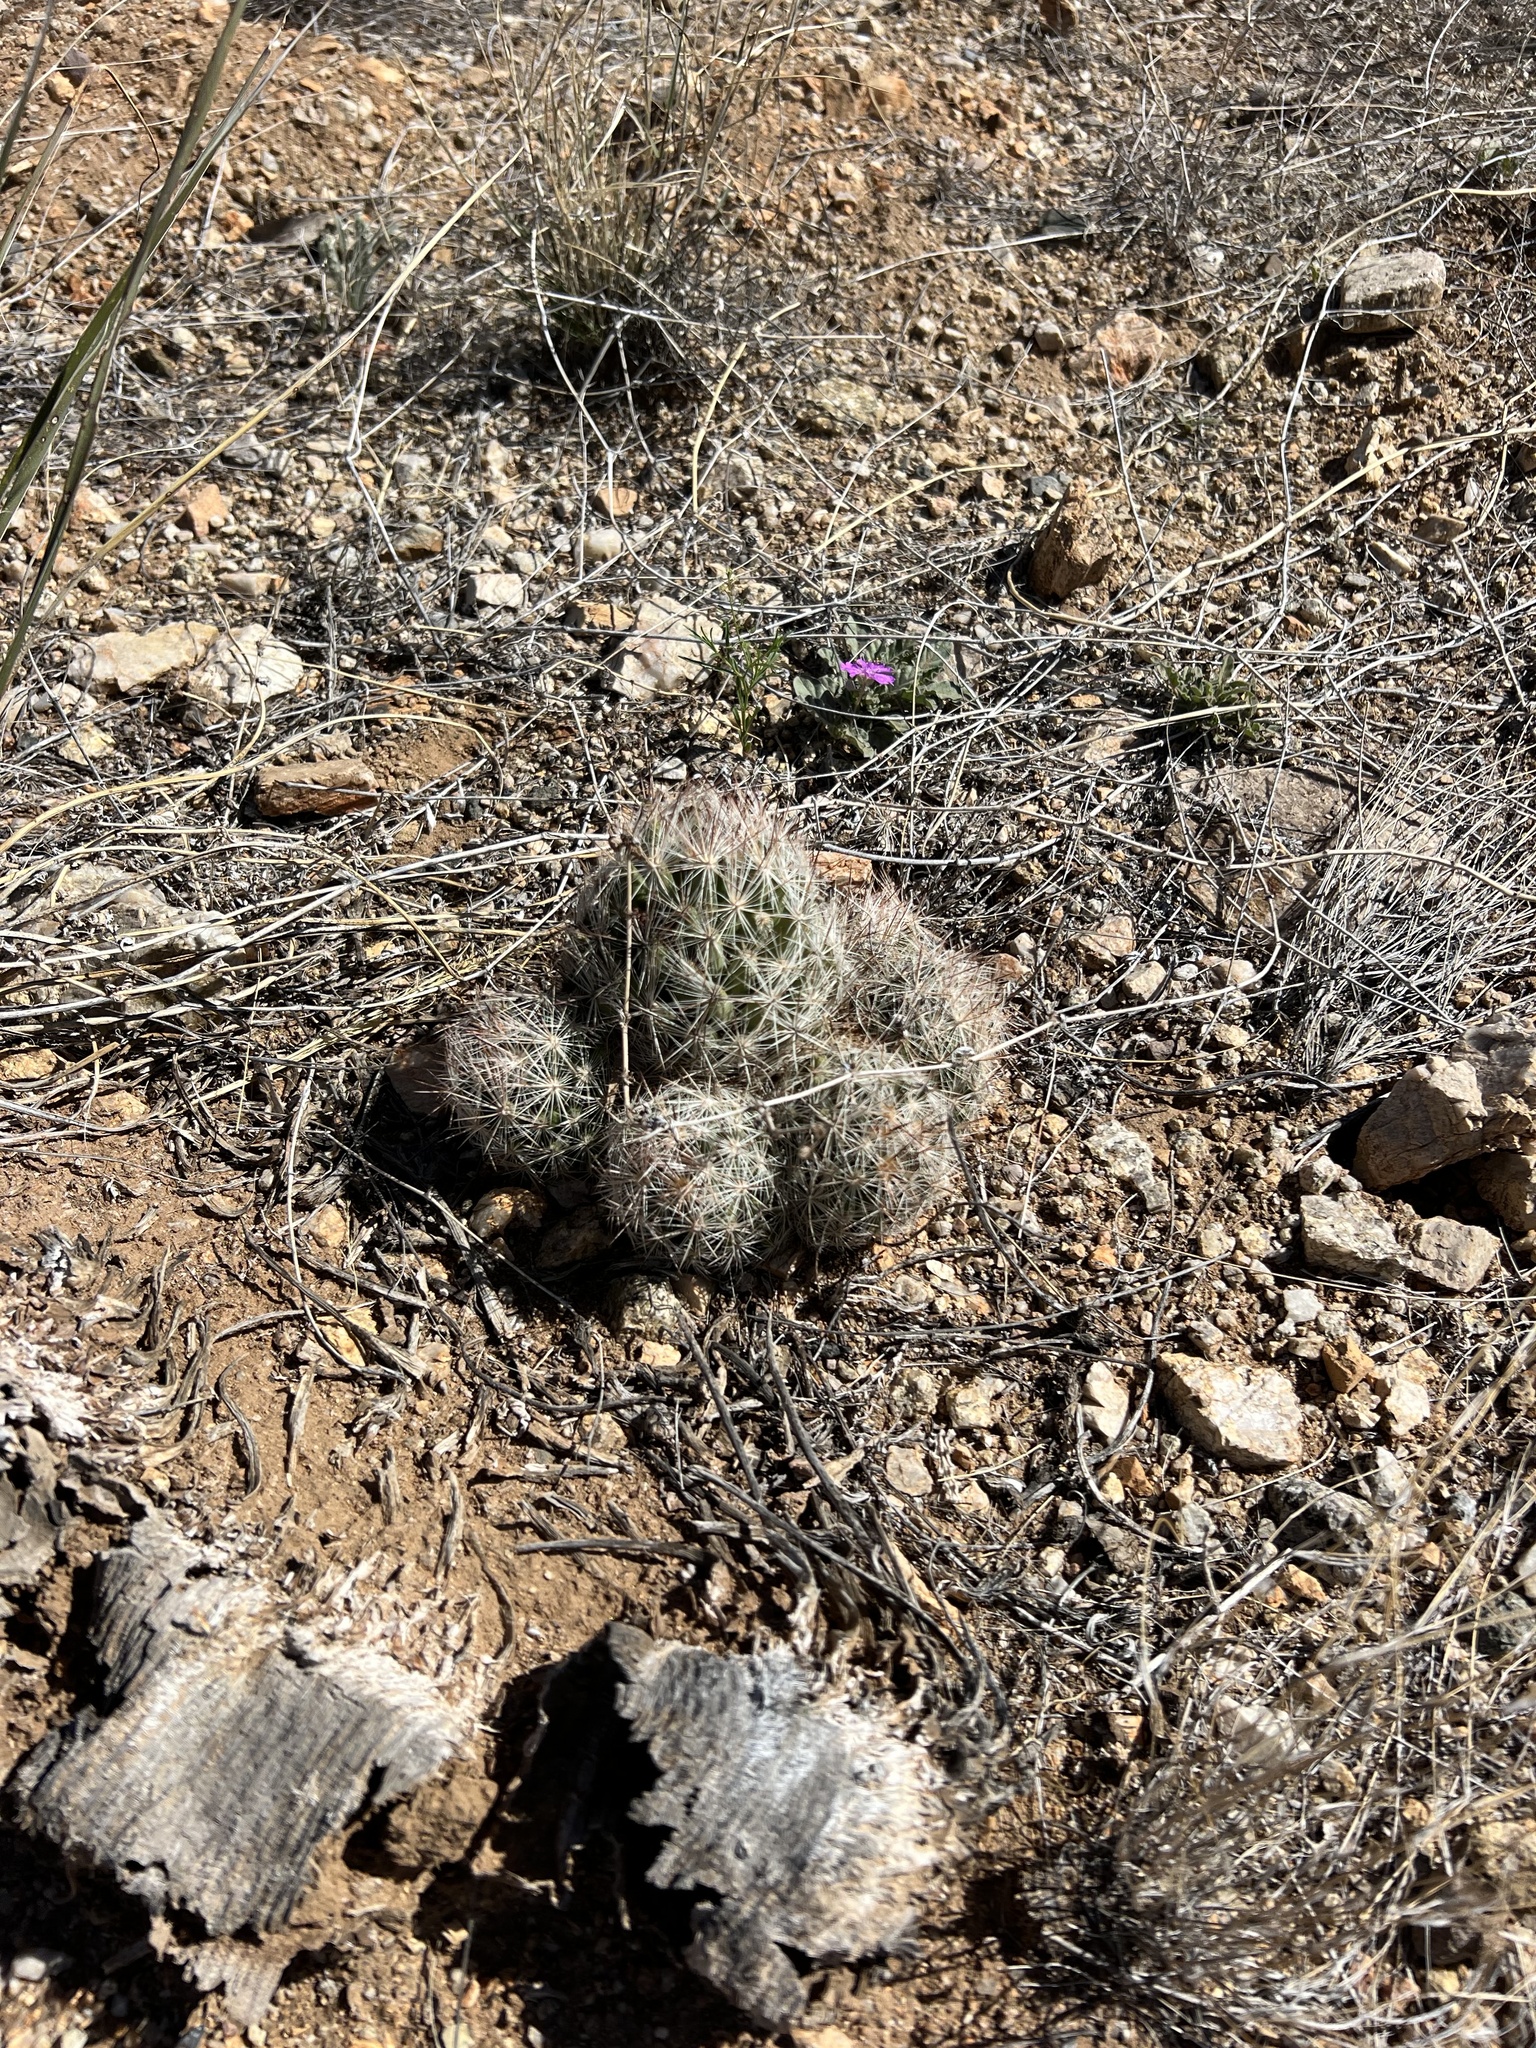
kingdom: Plantae
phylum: Tracheophyta
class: Magnoliopsida
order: Caryophyllales
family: Cactaceae
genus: Pelecyphora
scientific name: Pelecyphora vivipara
